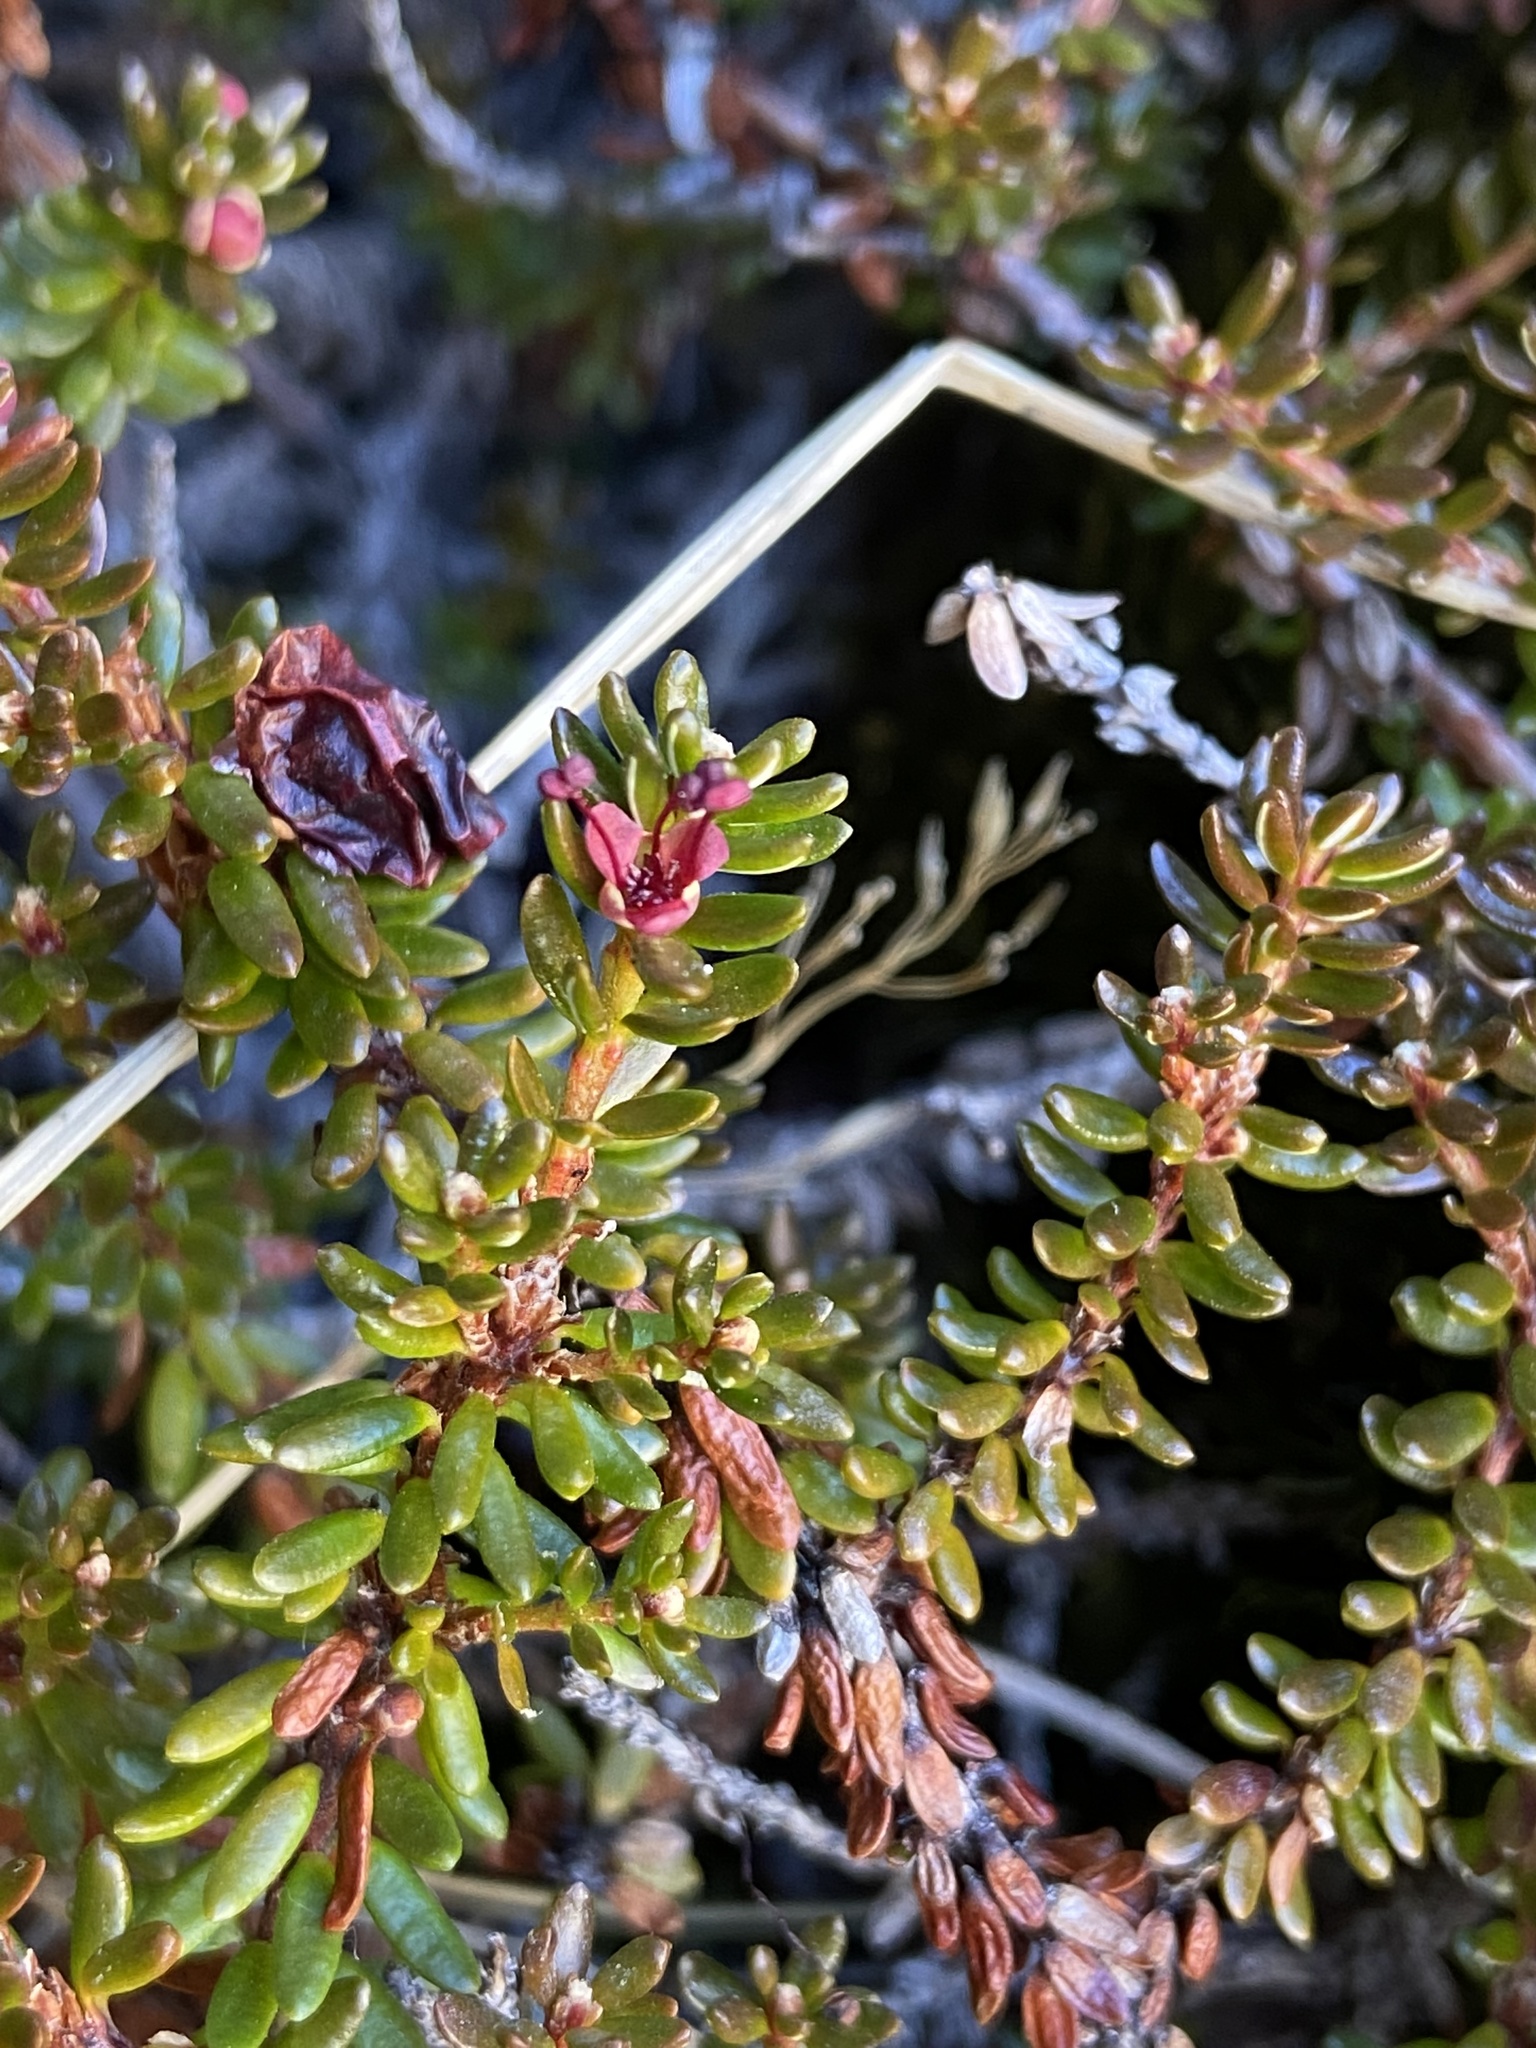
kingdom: Plantae
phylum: Tracheophyta
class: Magnoliopsida
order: Ericales
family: Ericaceae
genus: Empetrum
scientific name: Empetrum nigrum
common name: Black crowberry
